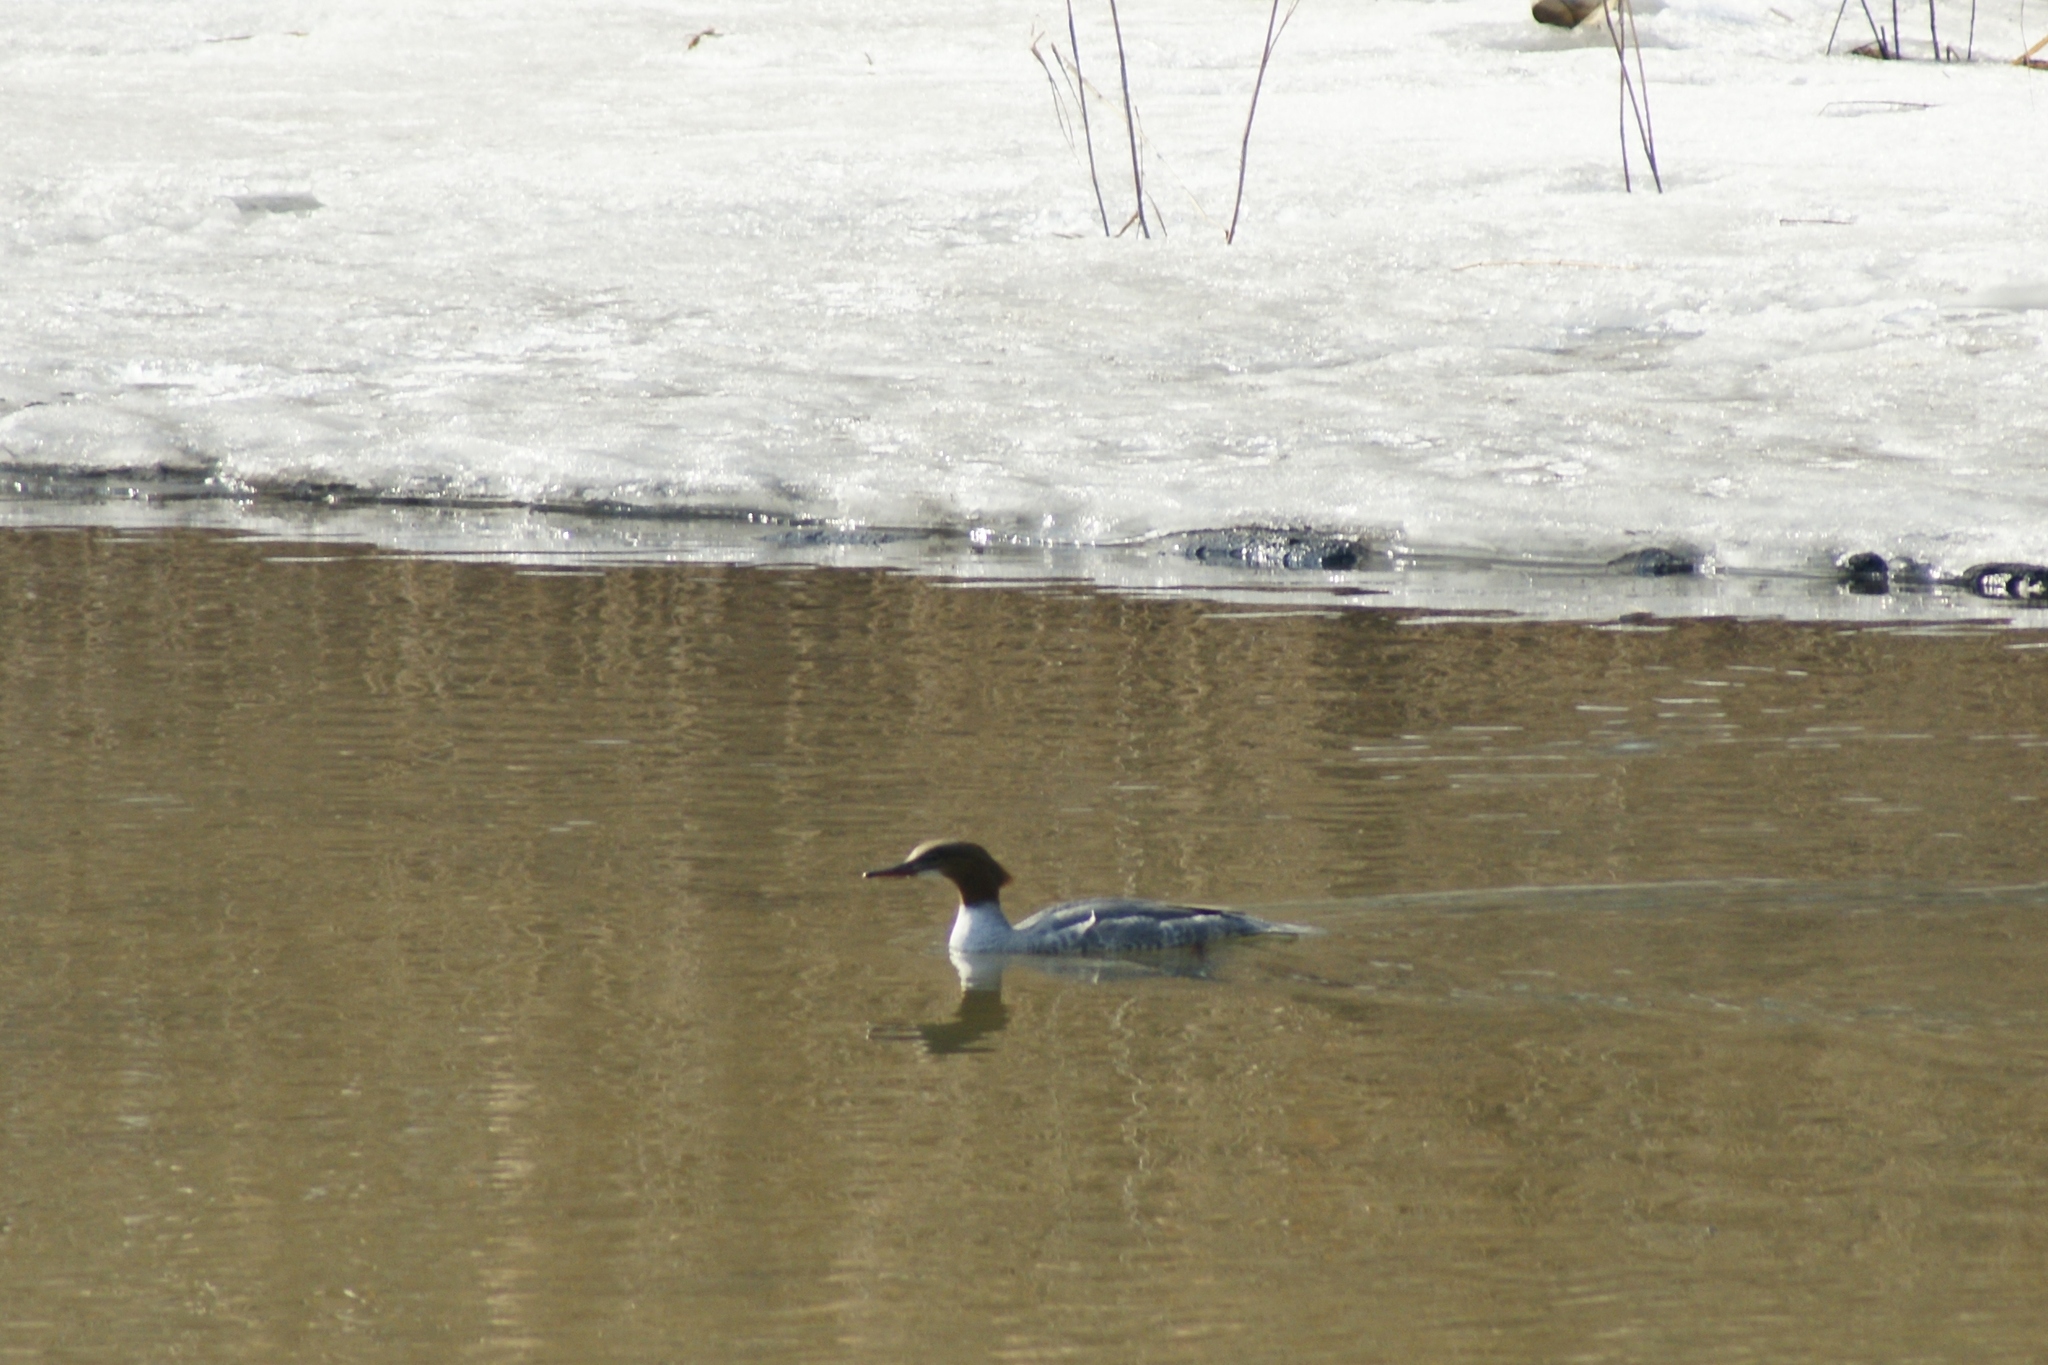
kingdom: Animalia
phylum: Chordata
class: Aves
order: Anseriformes
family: Anatidae
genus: Mergus
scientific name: Mergus merganser
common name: Common merganser
